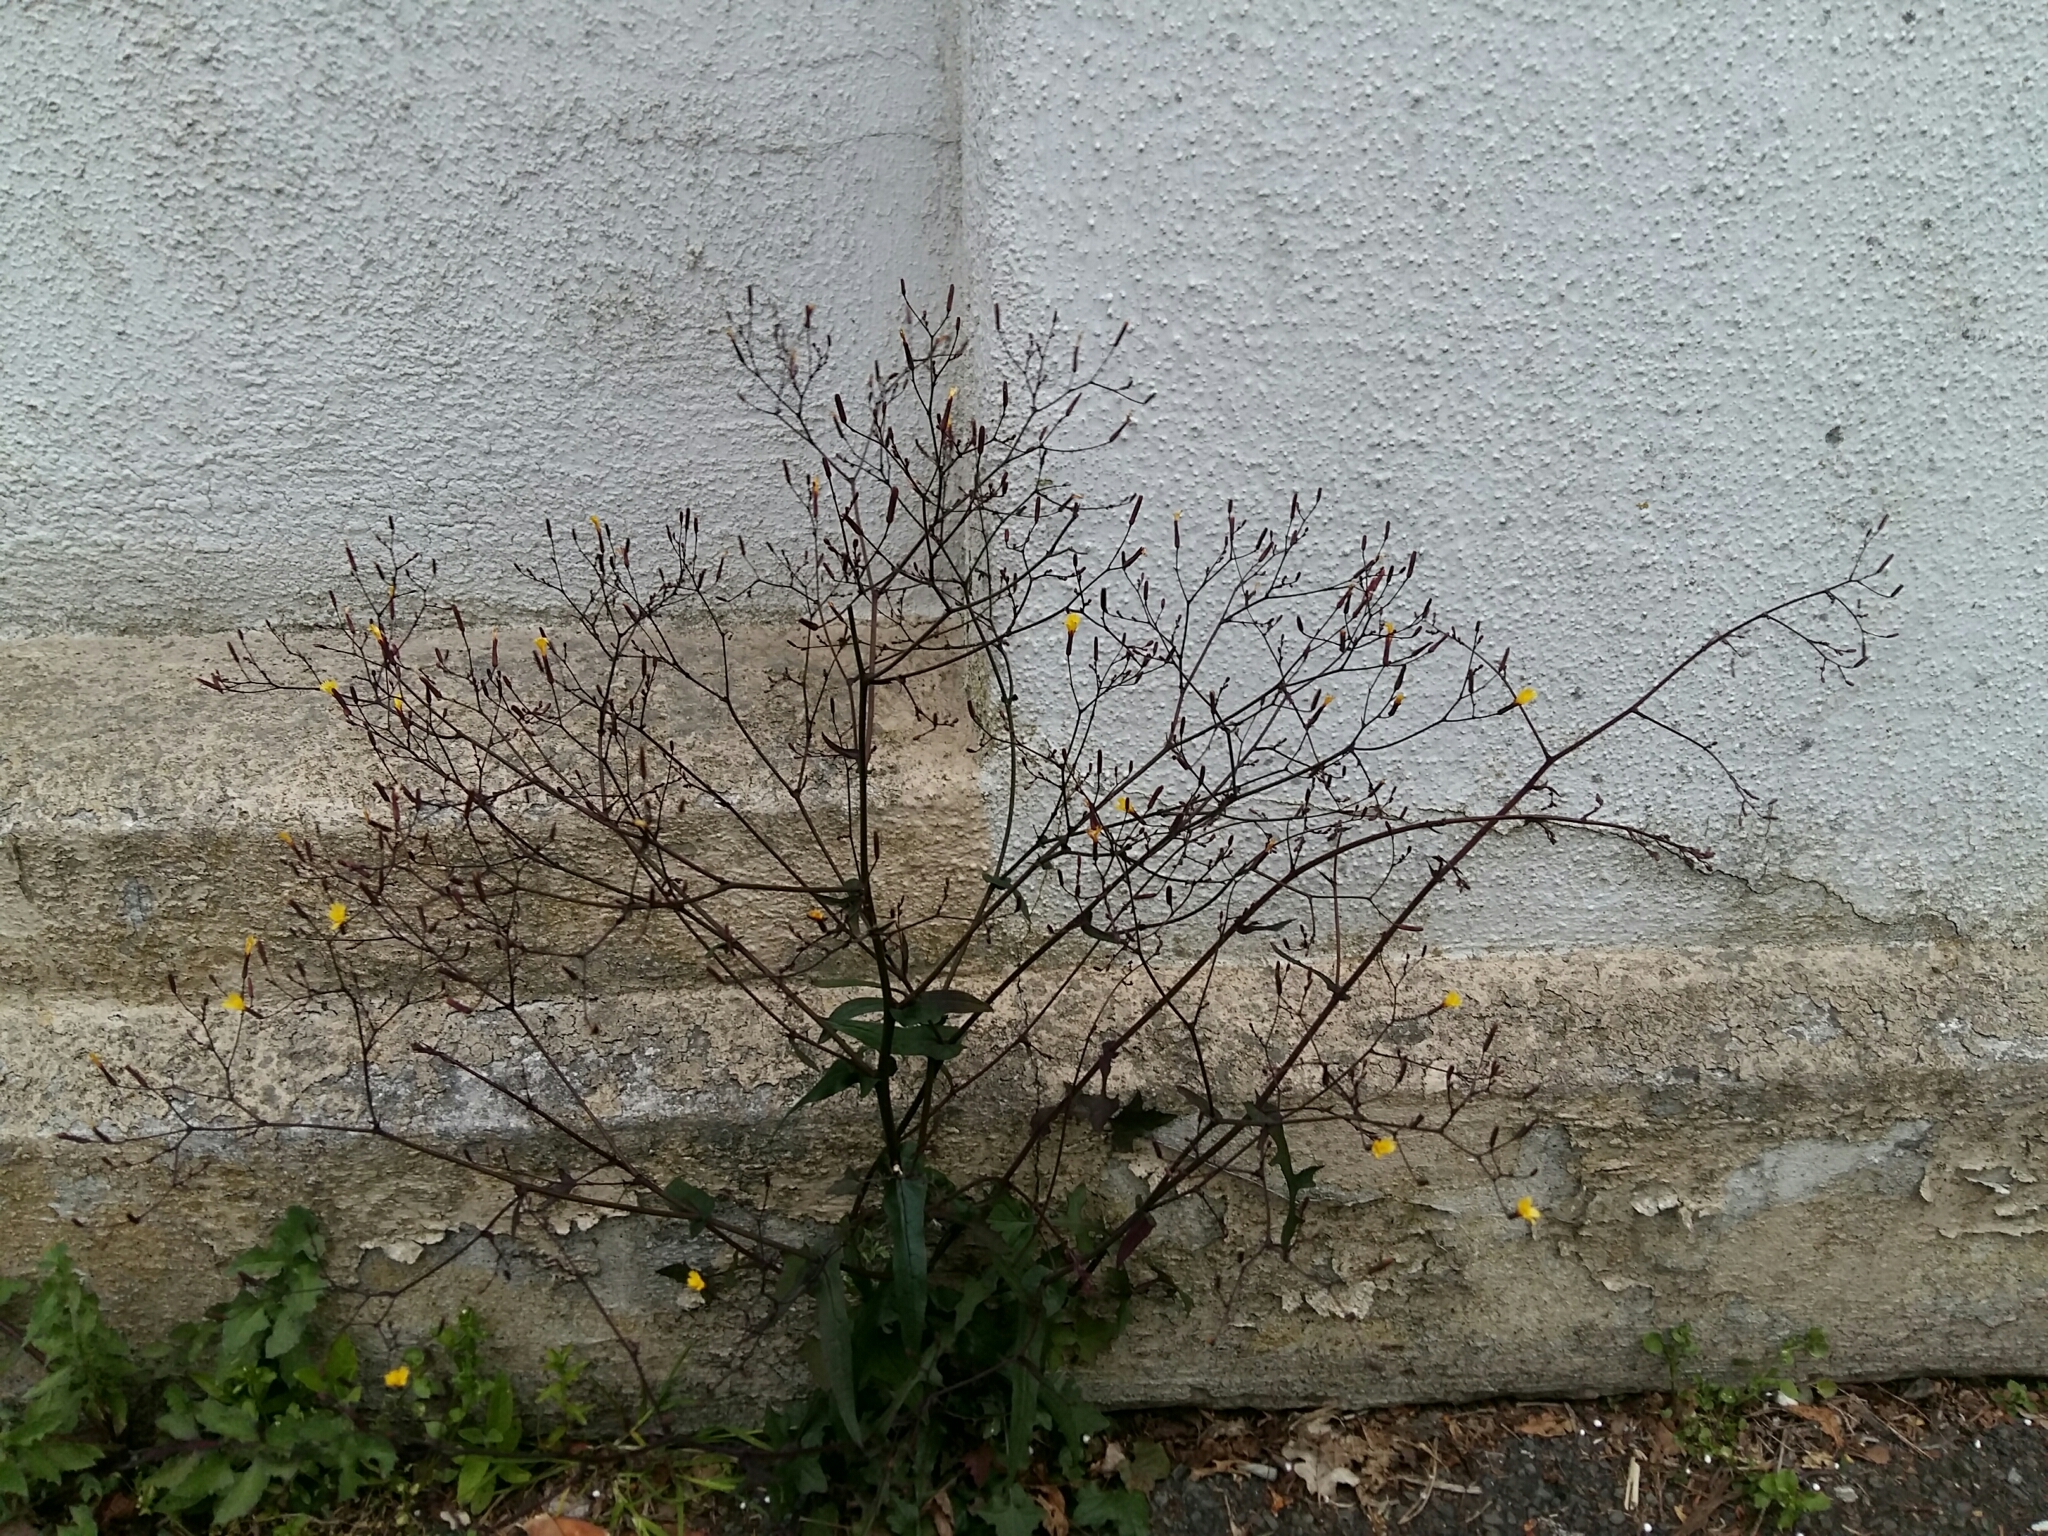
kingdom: Plantae
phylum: Tracheophyta
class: Magnoliopsida
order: Asterales
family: Asteraceae
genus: Mycelis
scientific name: Mycelis muralis
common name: Wall lettuce
